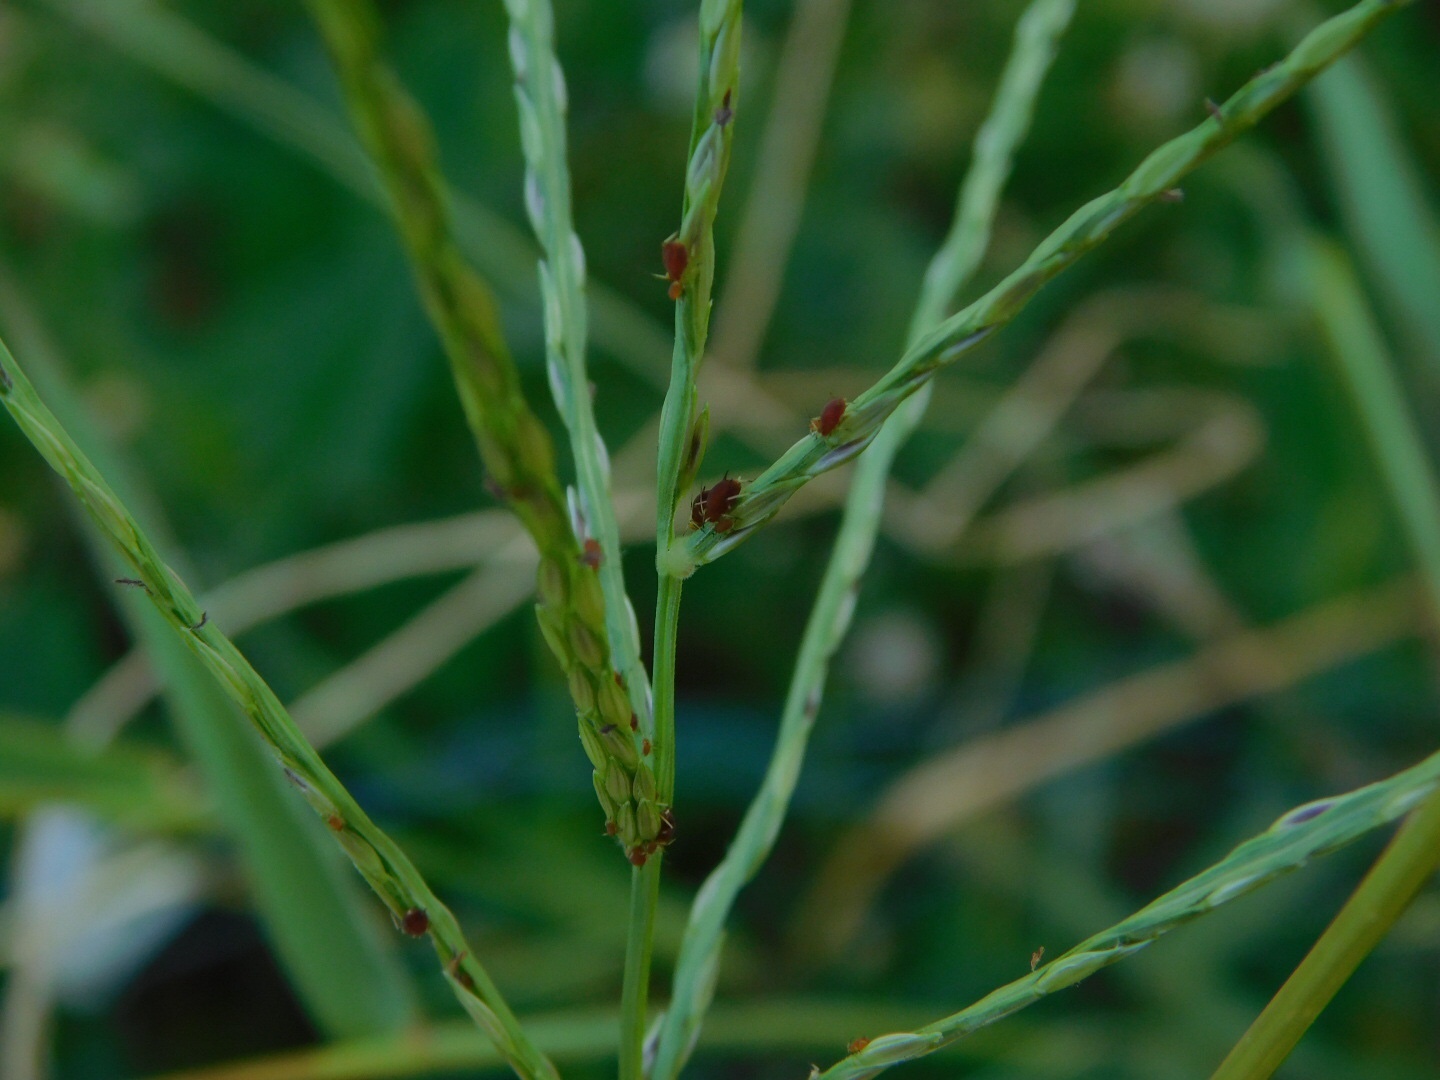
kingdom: Animalia
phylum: Arthropoda
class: Insecta
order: Hemiptera
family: Aphididae
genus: Hysteroneura
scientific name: Hysteroneura setariae
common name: Rusty plum aphid
